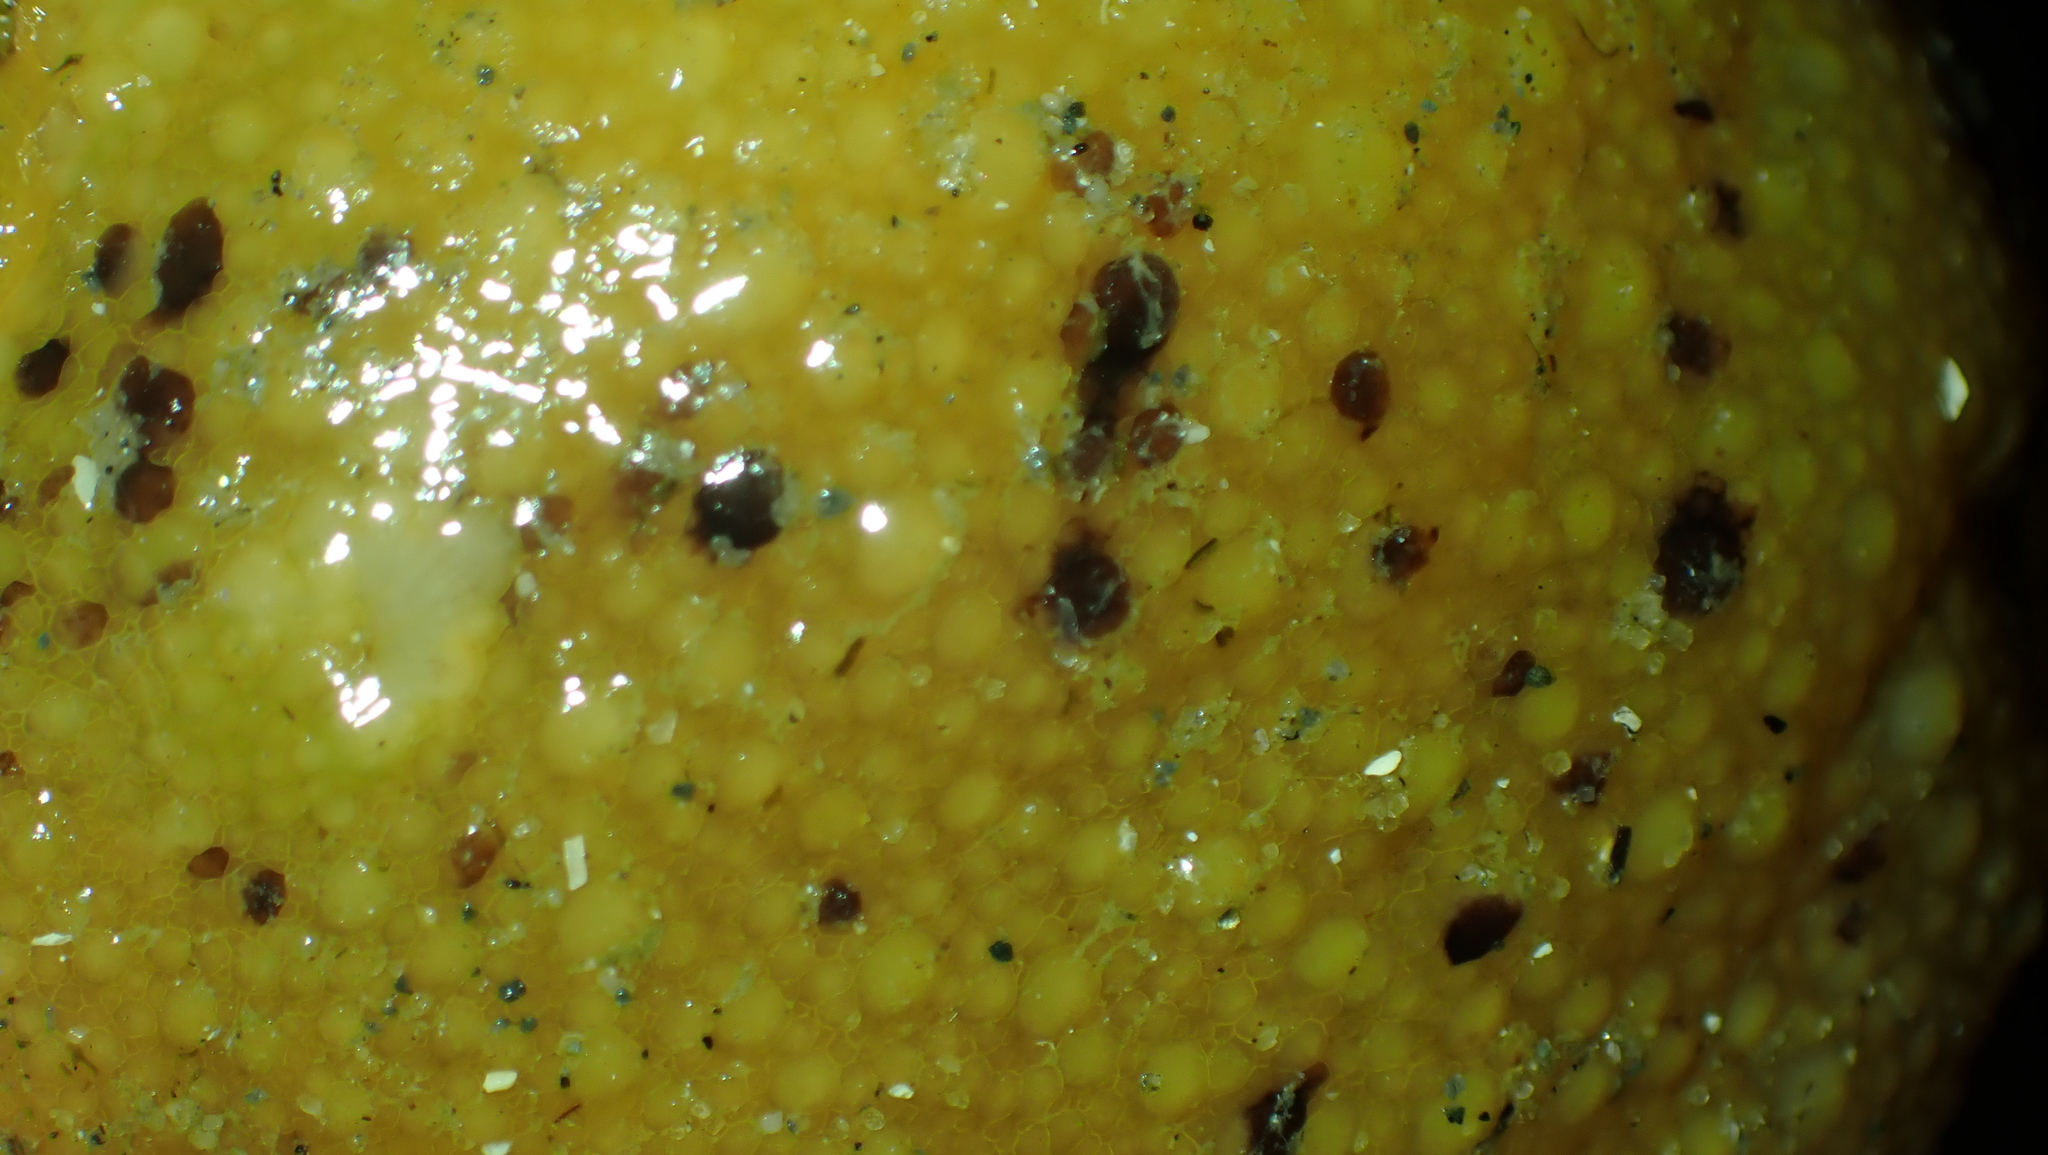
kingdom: Animalia
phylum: Mollusca
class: Gastropoda
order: Nudibranchia
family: Dorididae
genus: Doris
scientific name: Doris montereyensis
